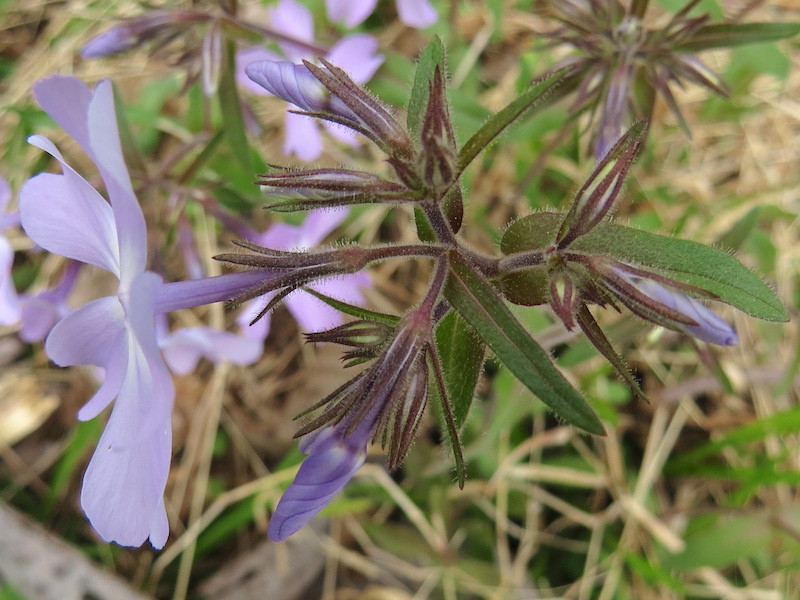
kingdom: Plantae
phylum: Tracheophyta
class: Magnoliopsida
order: Ericales
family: Polemoniaceae
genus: Phlox
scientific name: Phlox divaricata
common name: Blue phlox
